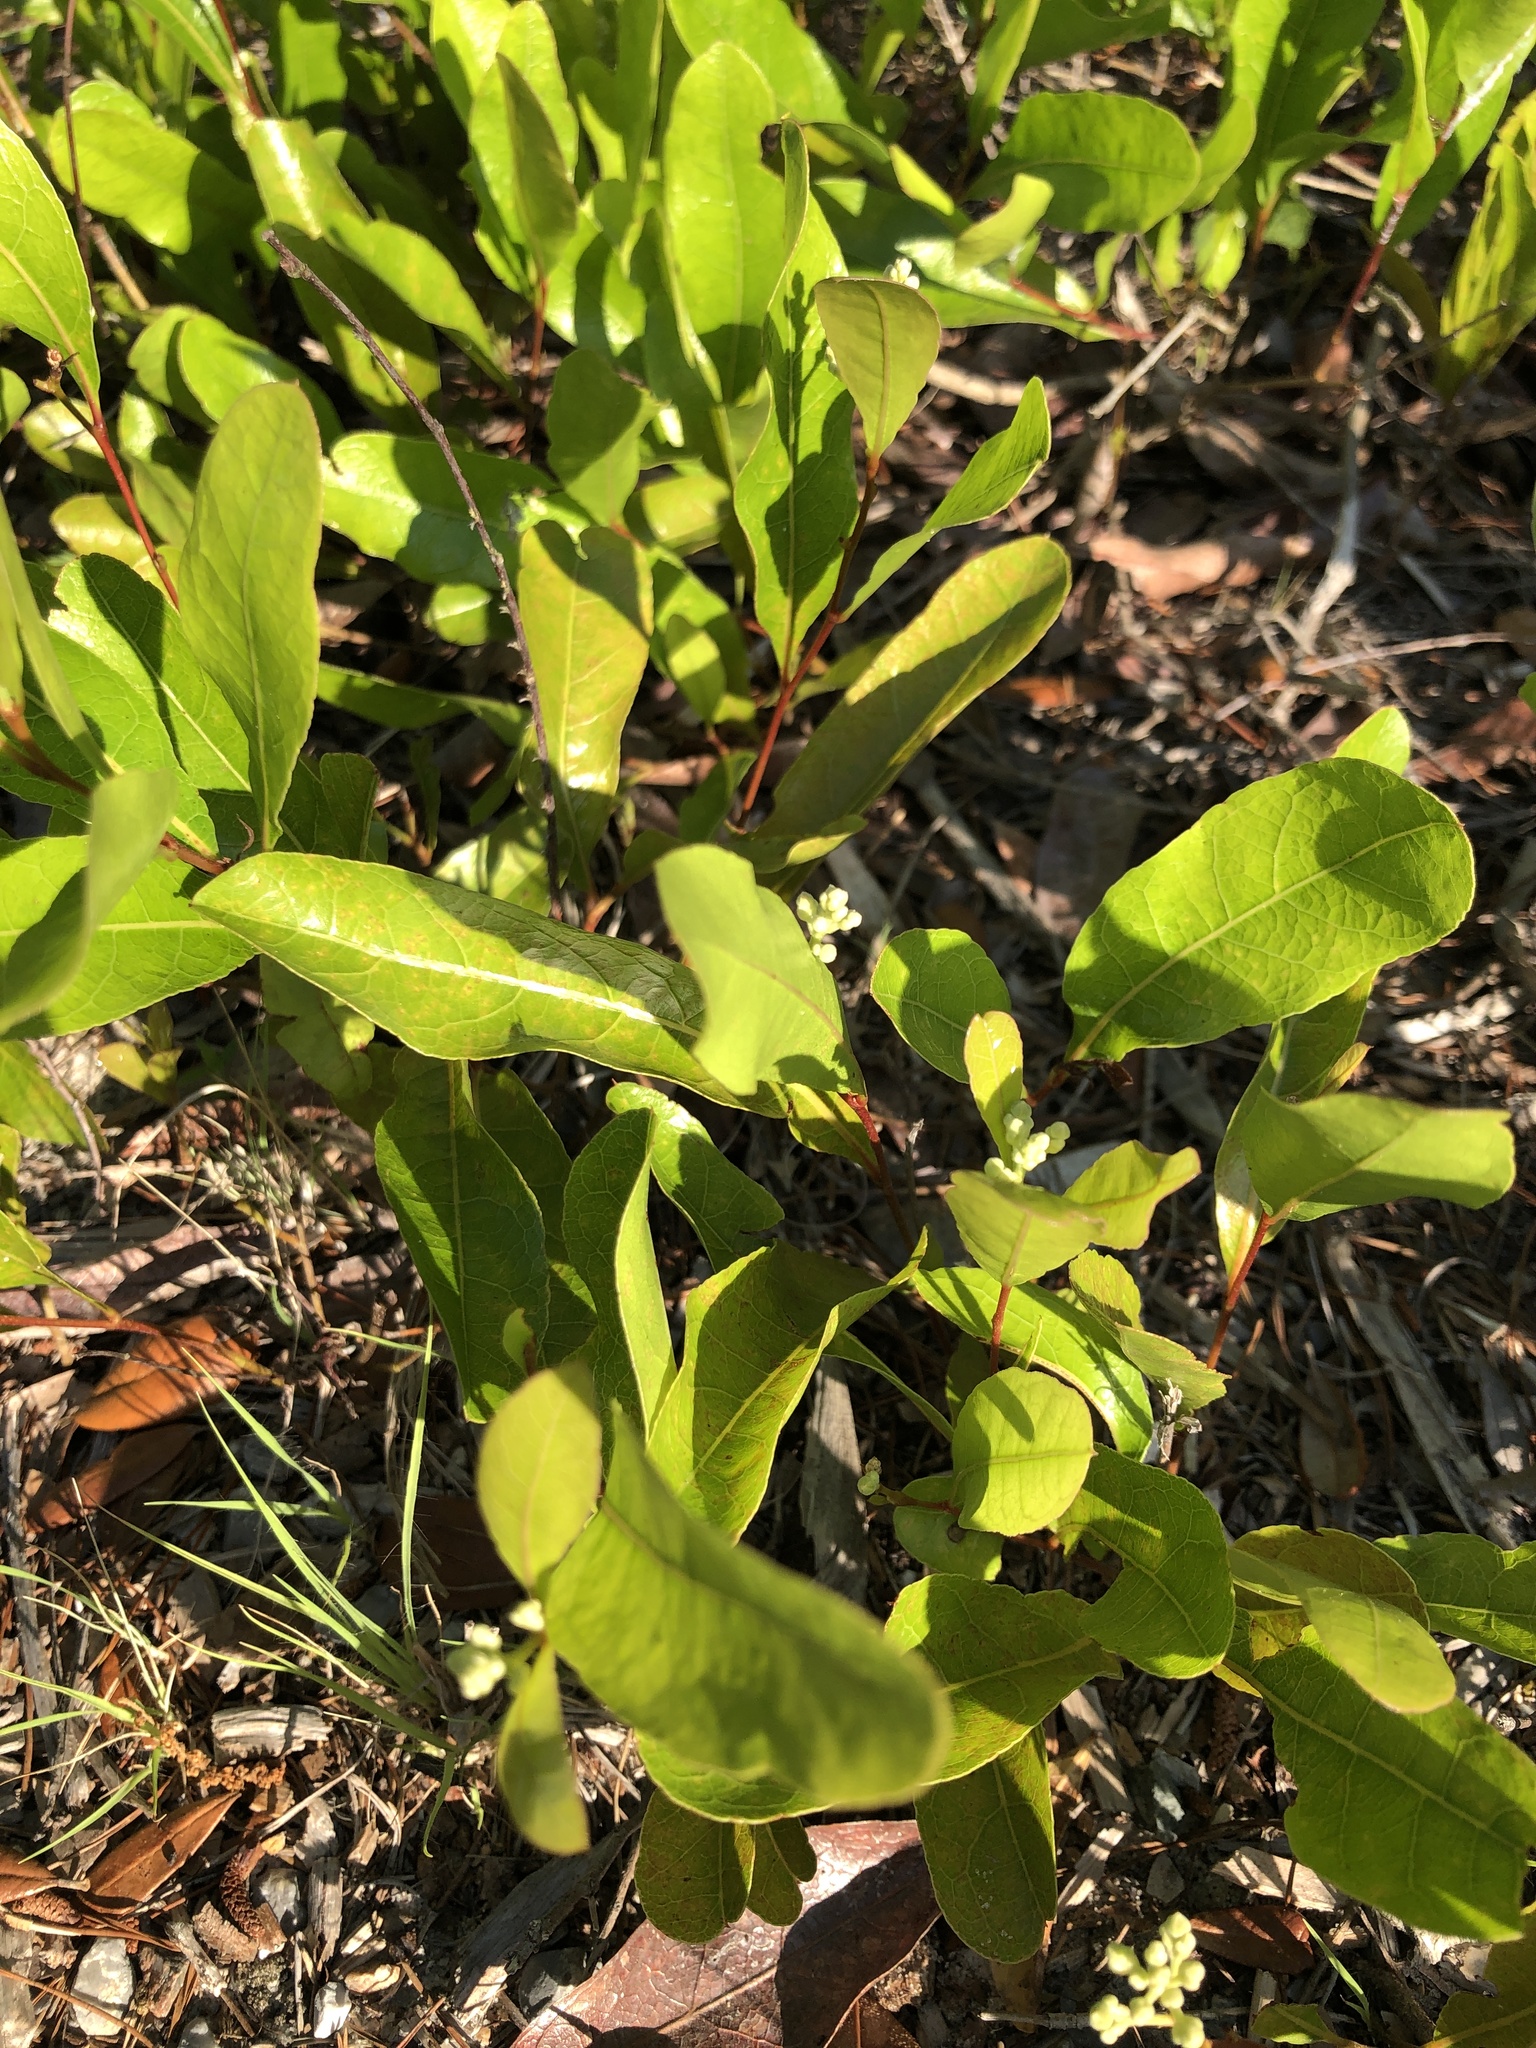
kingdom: Plantae
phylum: Tracheophyta
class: Magnoliopsida
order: Malpighiales
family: Chrysobalanaceae
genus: Geobalanus
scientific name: Geobalanus oblongifolius
